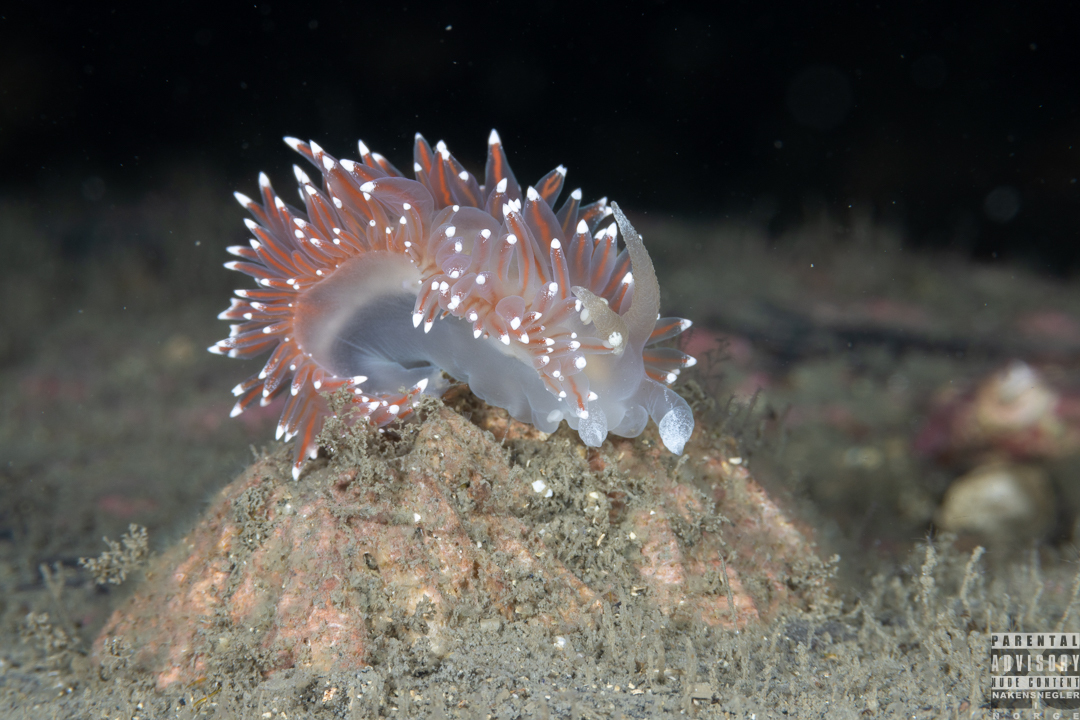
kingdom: Animalia
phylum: Mollusca
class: Gastropoda
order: Nudibranchia
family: Coryphellidae
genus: Coryphella
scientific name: Coryphella nobilis
